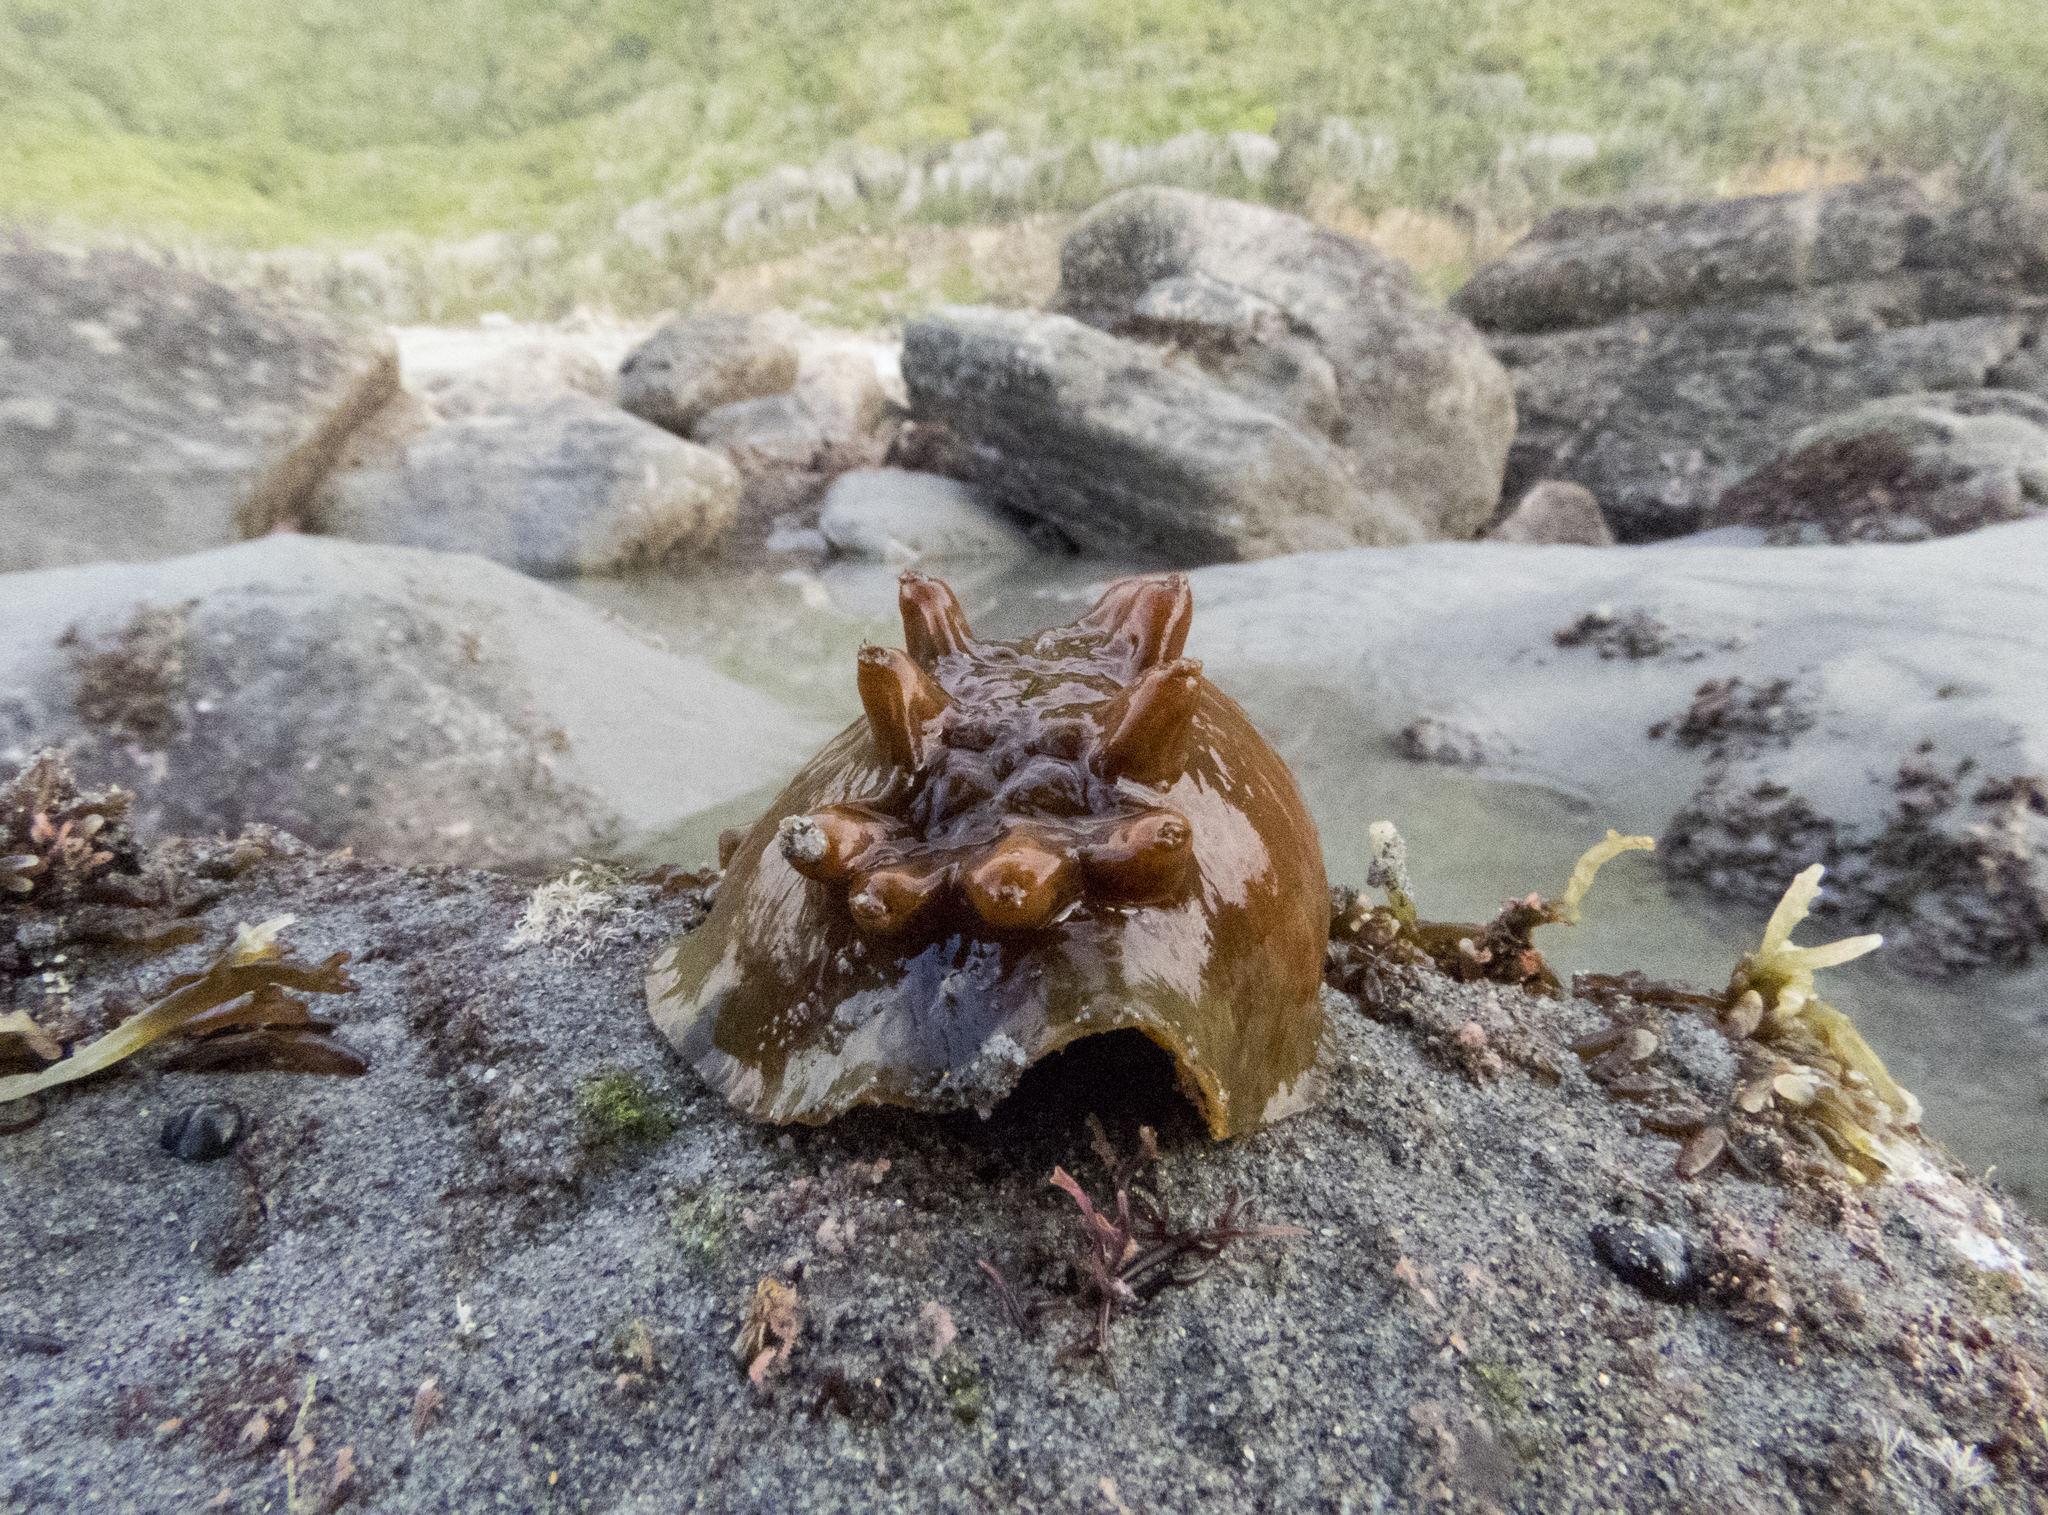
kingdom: Animalia
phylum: Mollusca
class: Polyplacophora
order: Chitonida
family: Acanthochitonidae
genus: Cryptoconchus
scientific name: Cryptoconchus porosus
